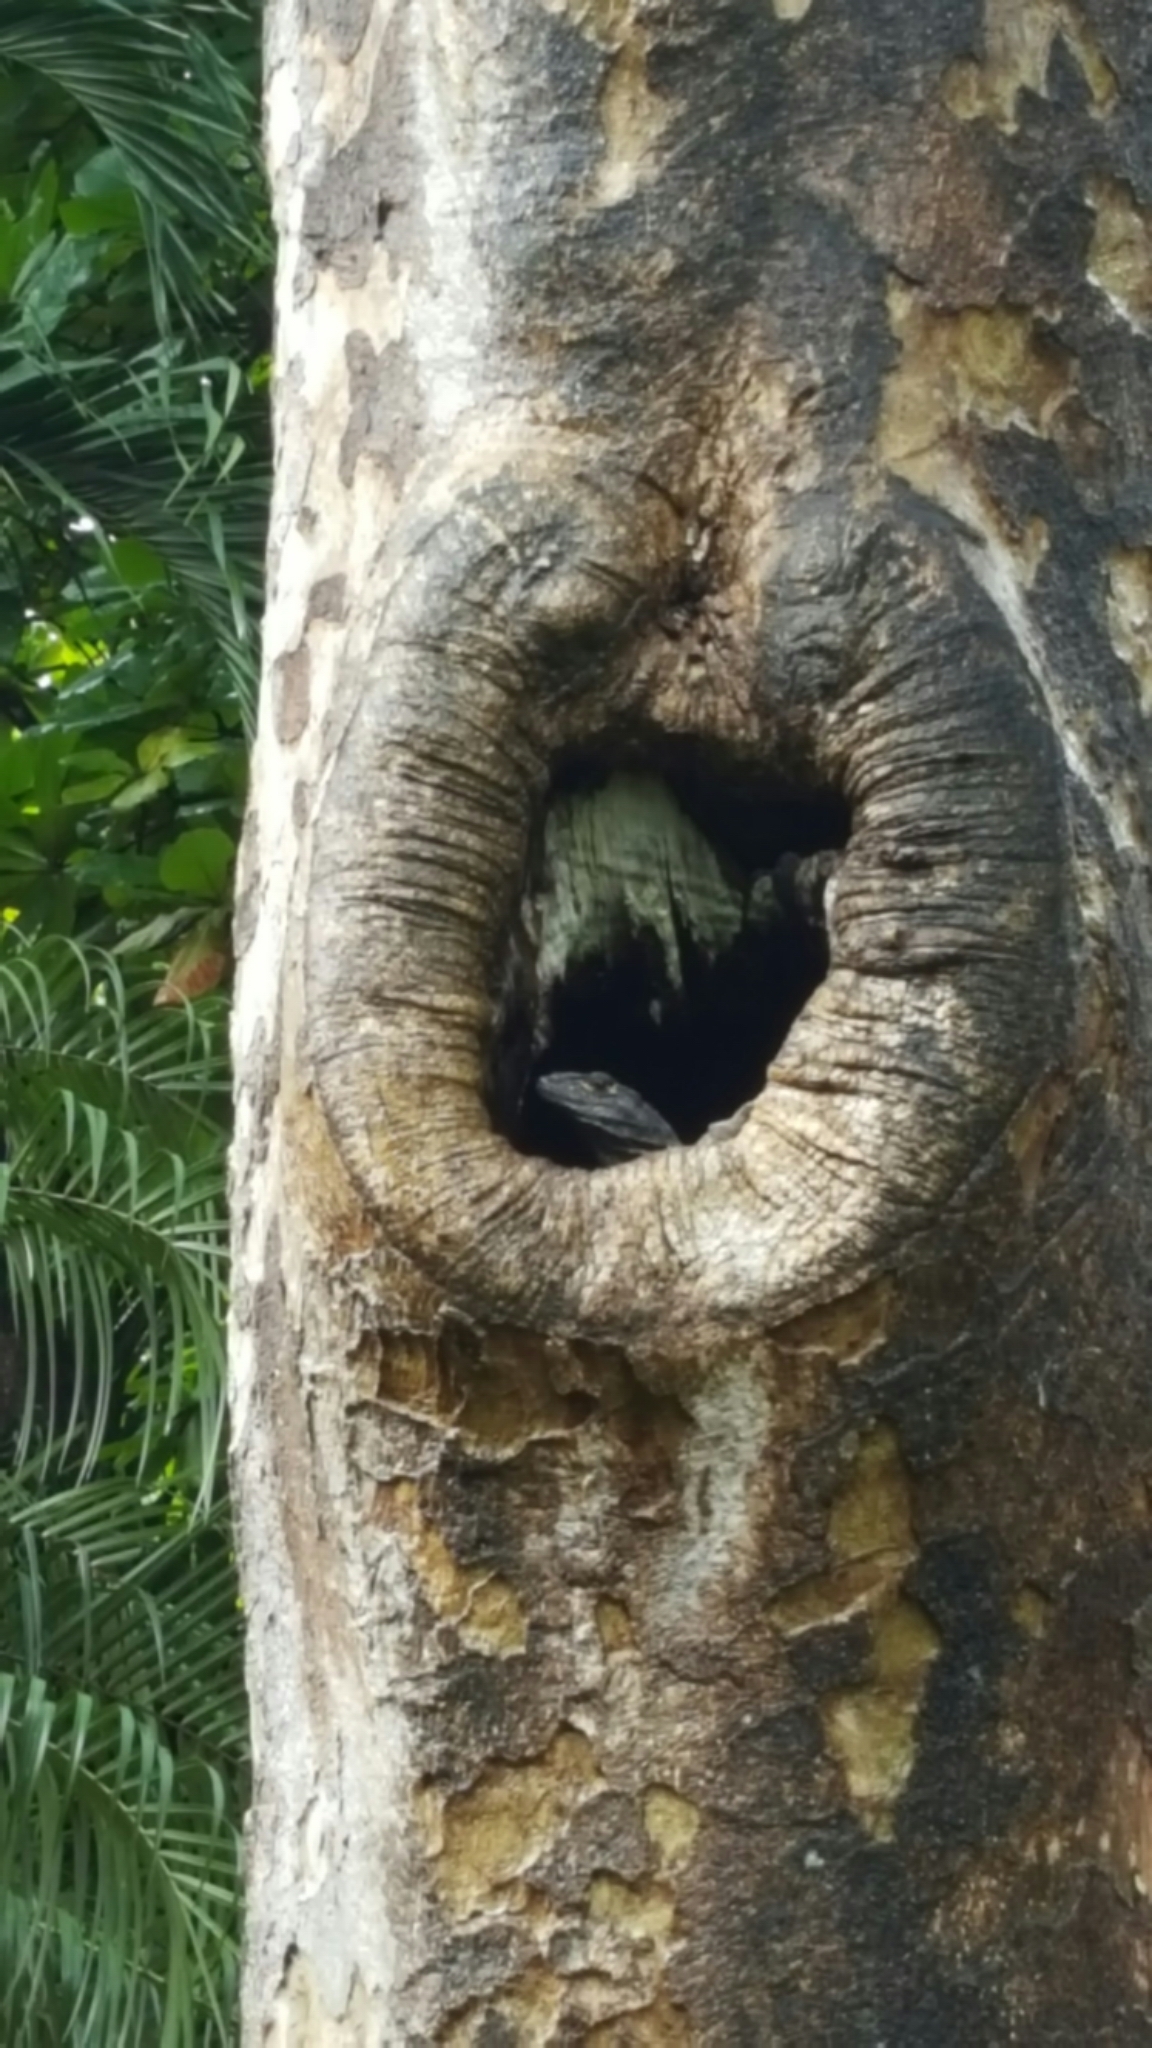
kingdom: Animalia
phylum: Chordata
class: Squamata
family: Iguanidae
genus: Ctenosaura
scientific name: Ctenosaura similis
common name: Black spiny-tailed iguana
